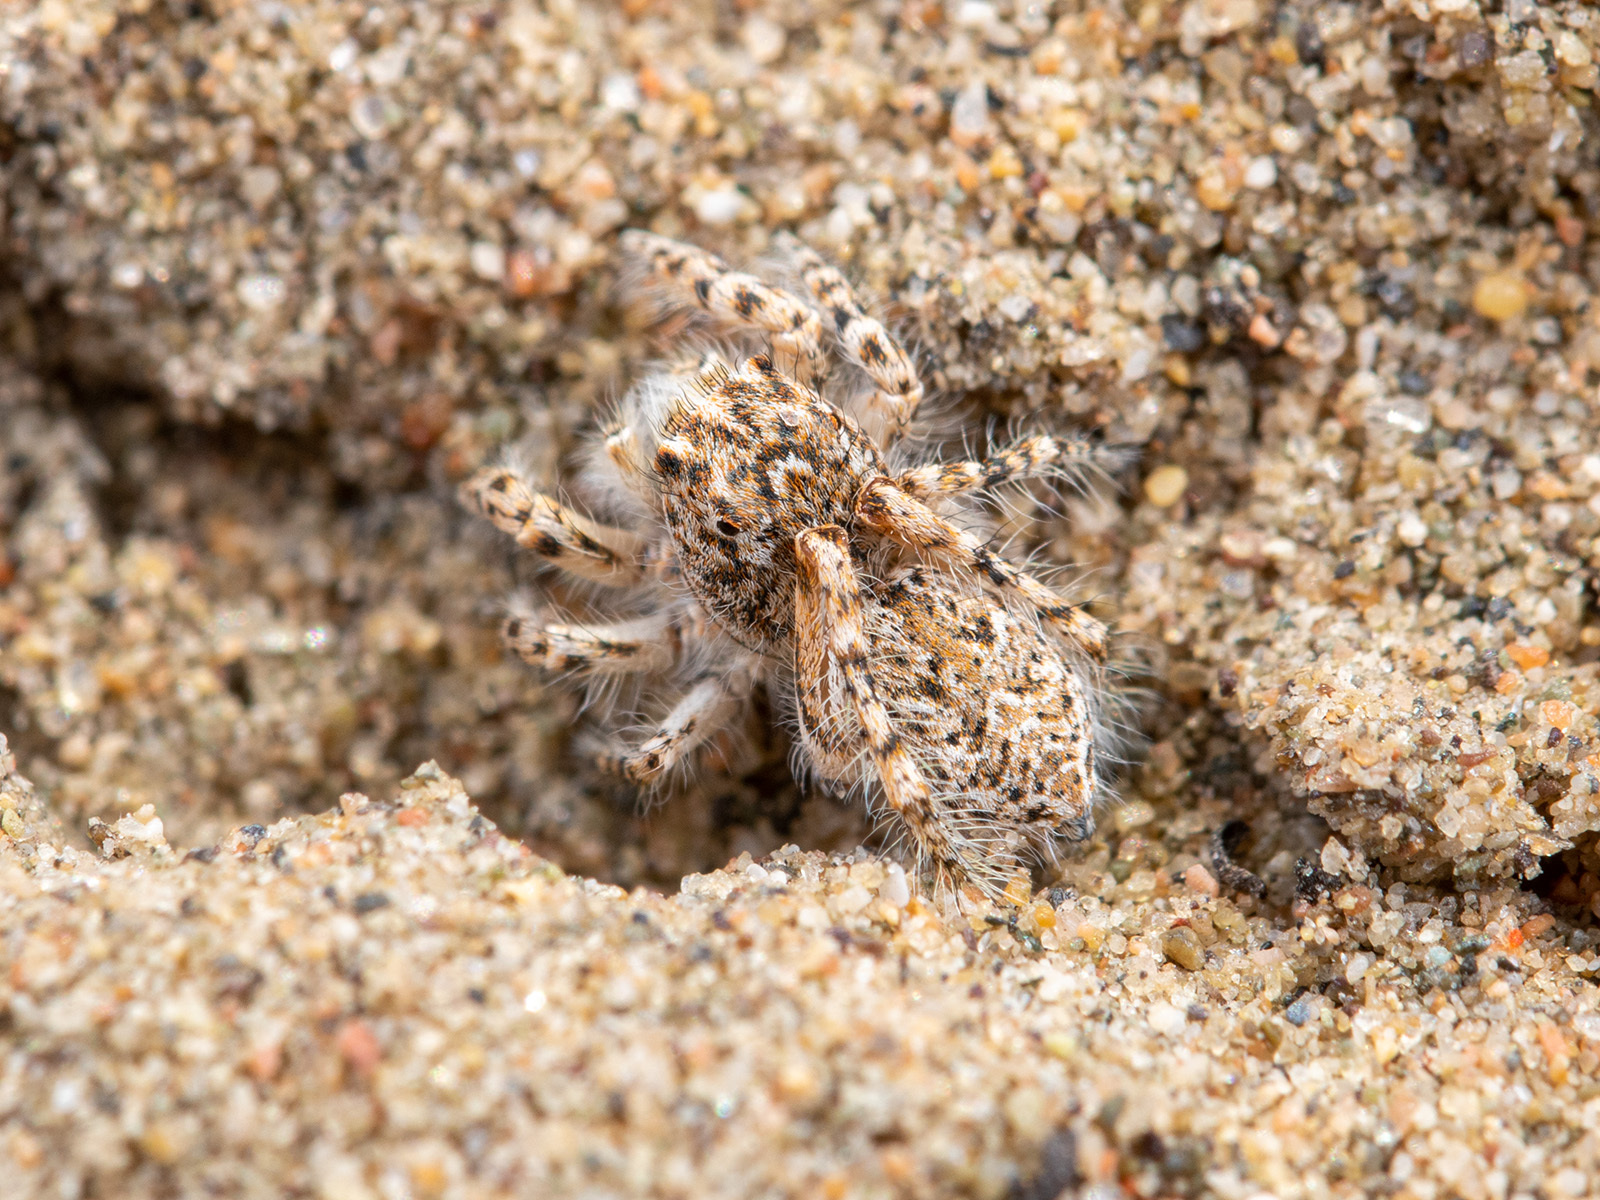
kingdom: Animalia
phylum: Arthropoda
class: Arachnida
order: Araneae
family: Salticidae
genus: Yllenus
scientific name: Yllenus turkestanicus
